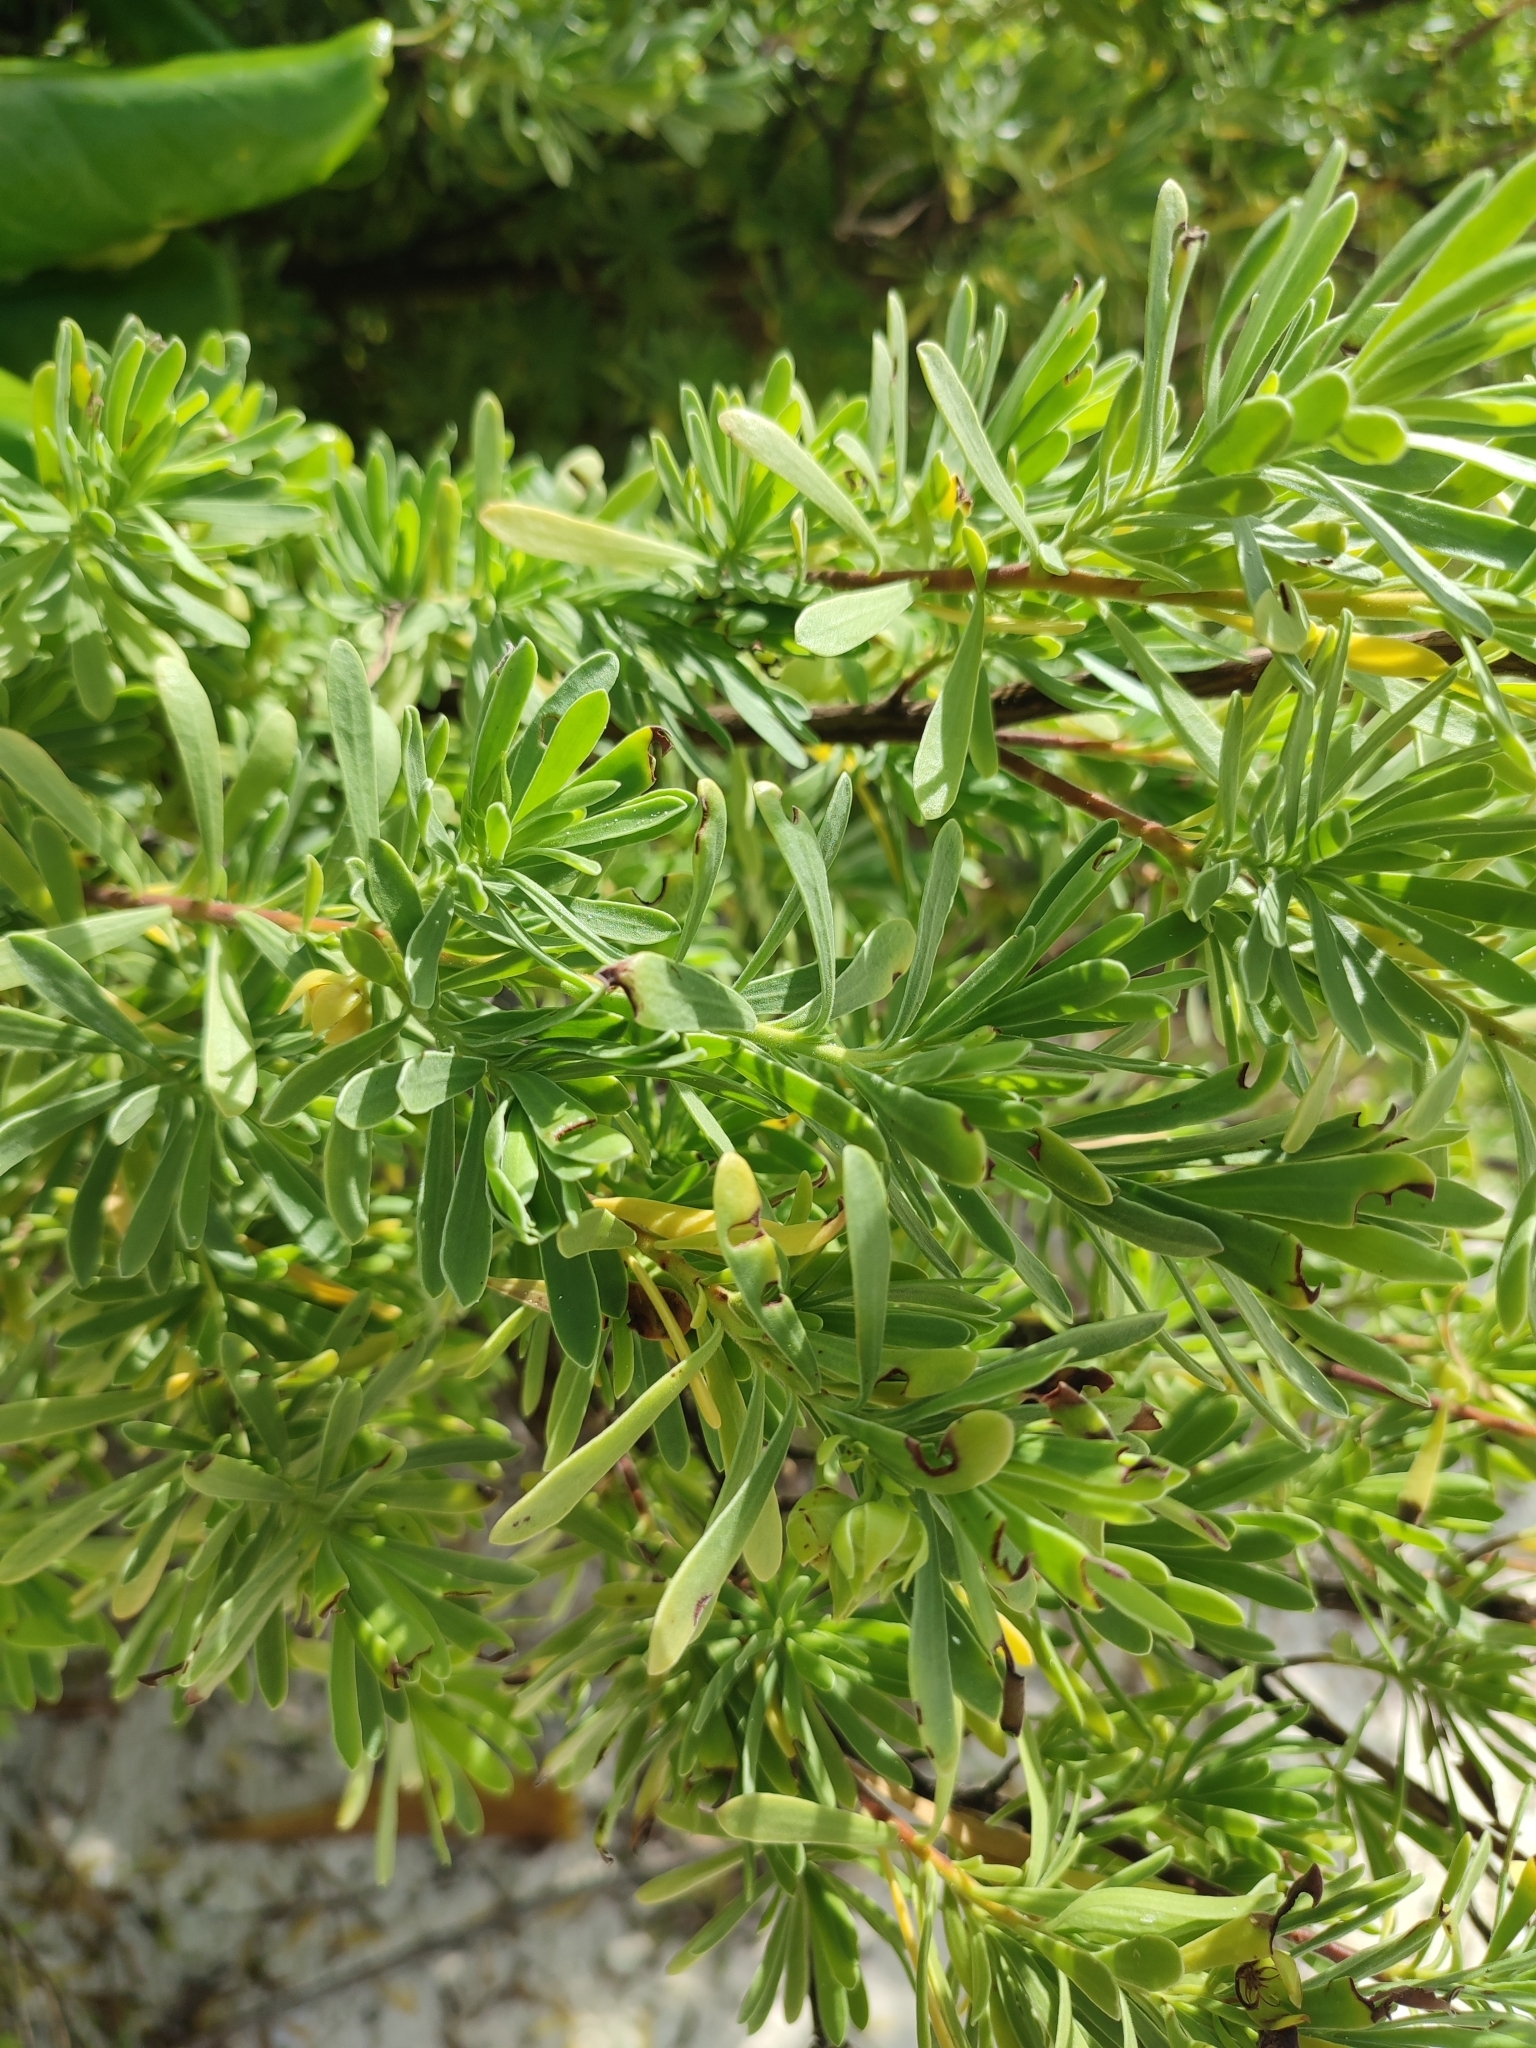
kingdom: Plantae
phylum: Tracheophyta
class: Magnoliopsida
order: Fabales
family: Surianaceae
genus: Suriana
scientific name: Suriana maritima
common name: Bay-cedar
